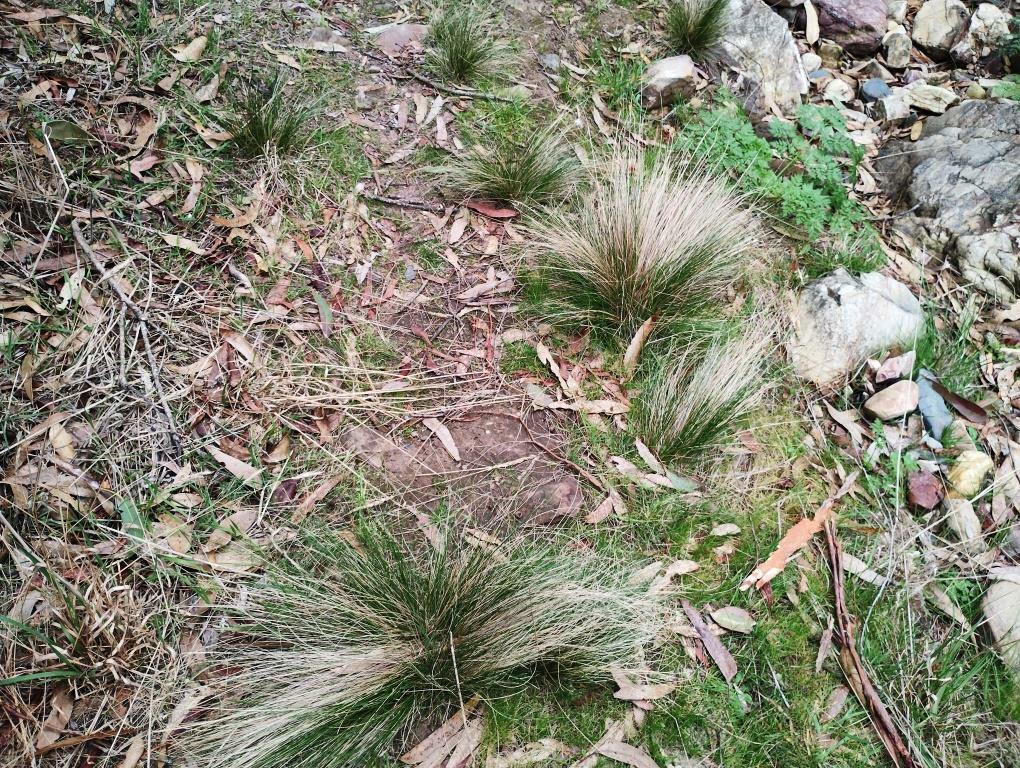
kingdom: Plantae
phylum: Tracheophyta
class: Liliopsida
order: Poales
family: Poaceae
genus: Nassella
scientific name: Nassella trichotoma
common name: Serrated tussock grass
